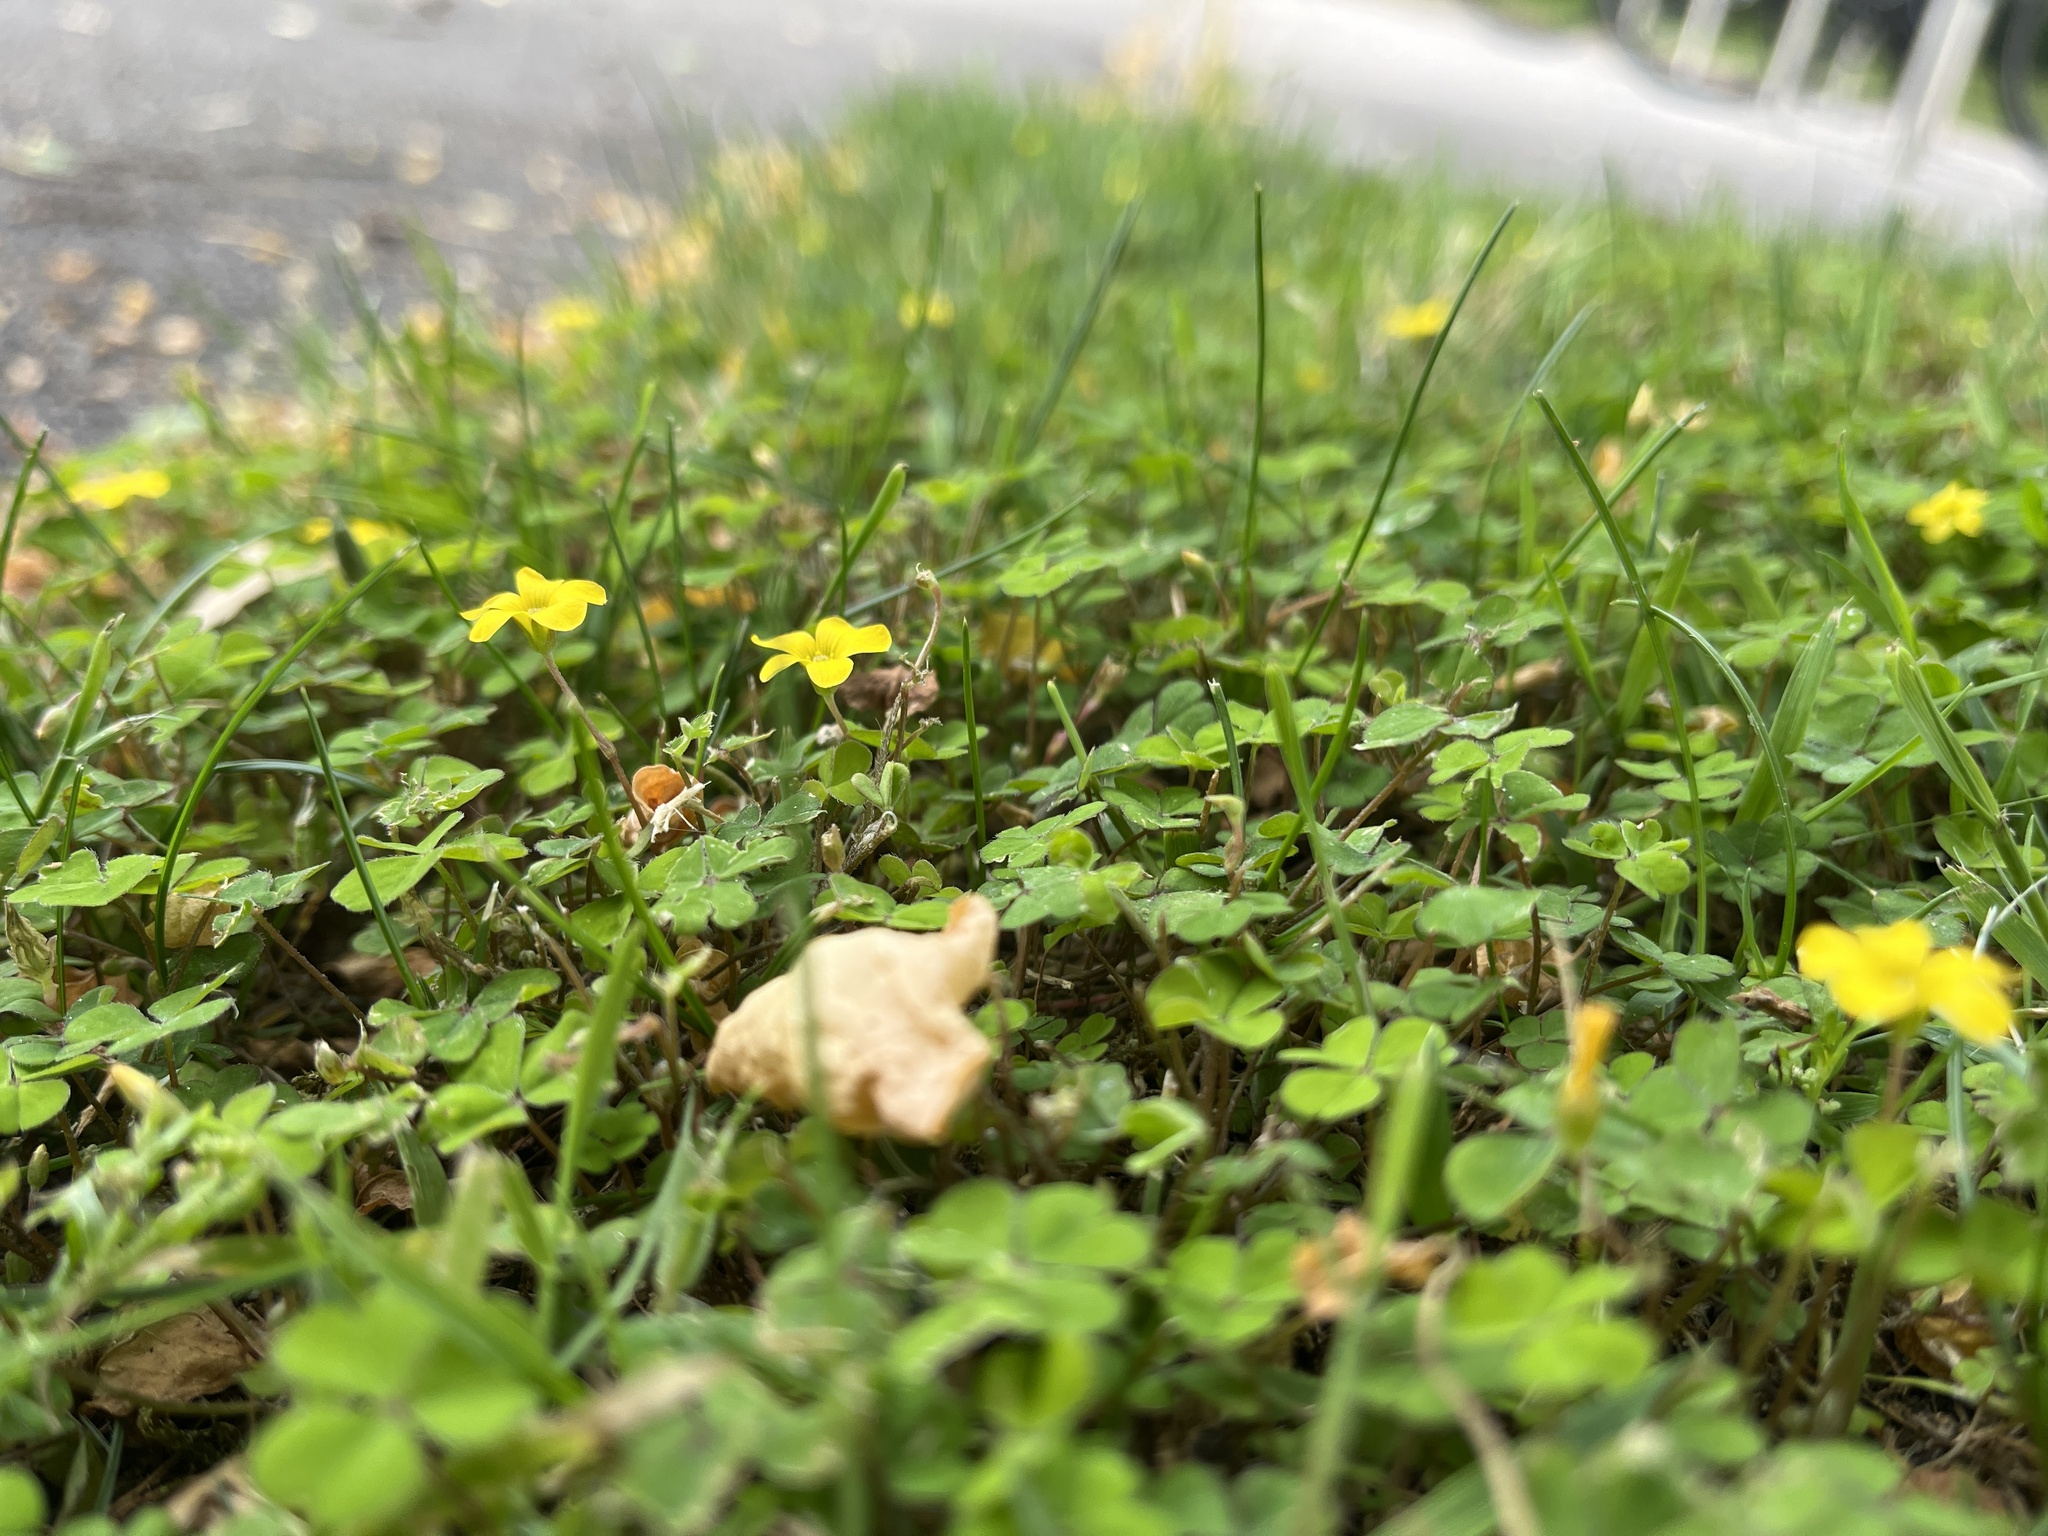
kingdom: Plantae
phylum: Tracheophyta
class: Magnoliopsida
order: Oxalidales
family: Oxalidaceae
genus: Oxalis
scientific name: Oxalis exilis
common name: Least yellow-sorrel
